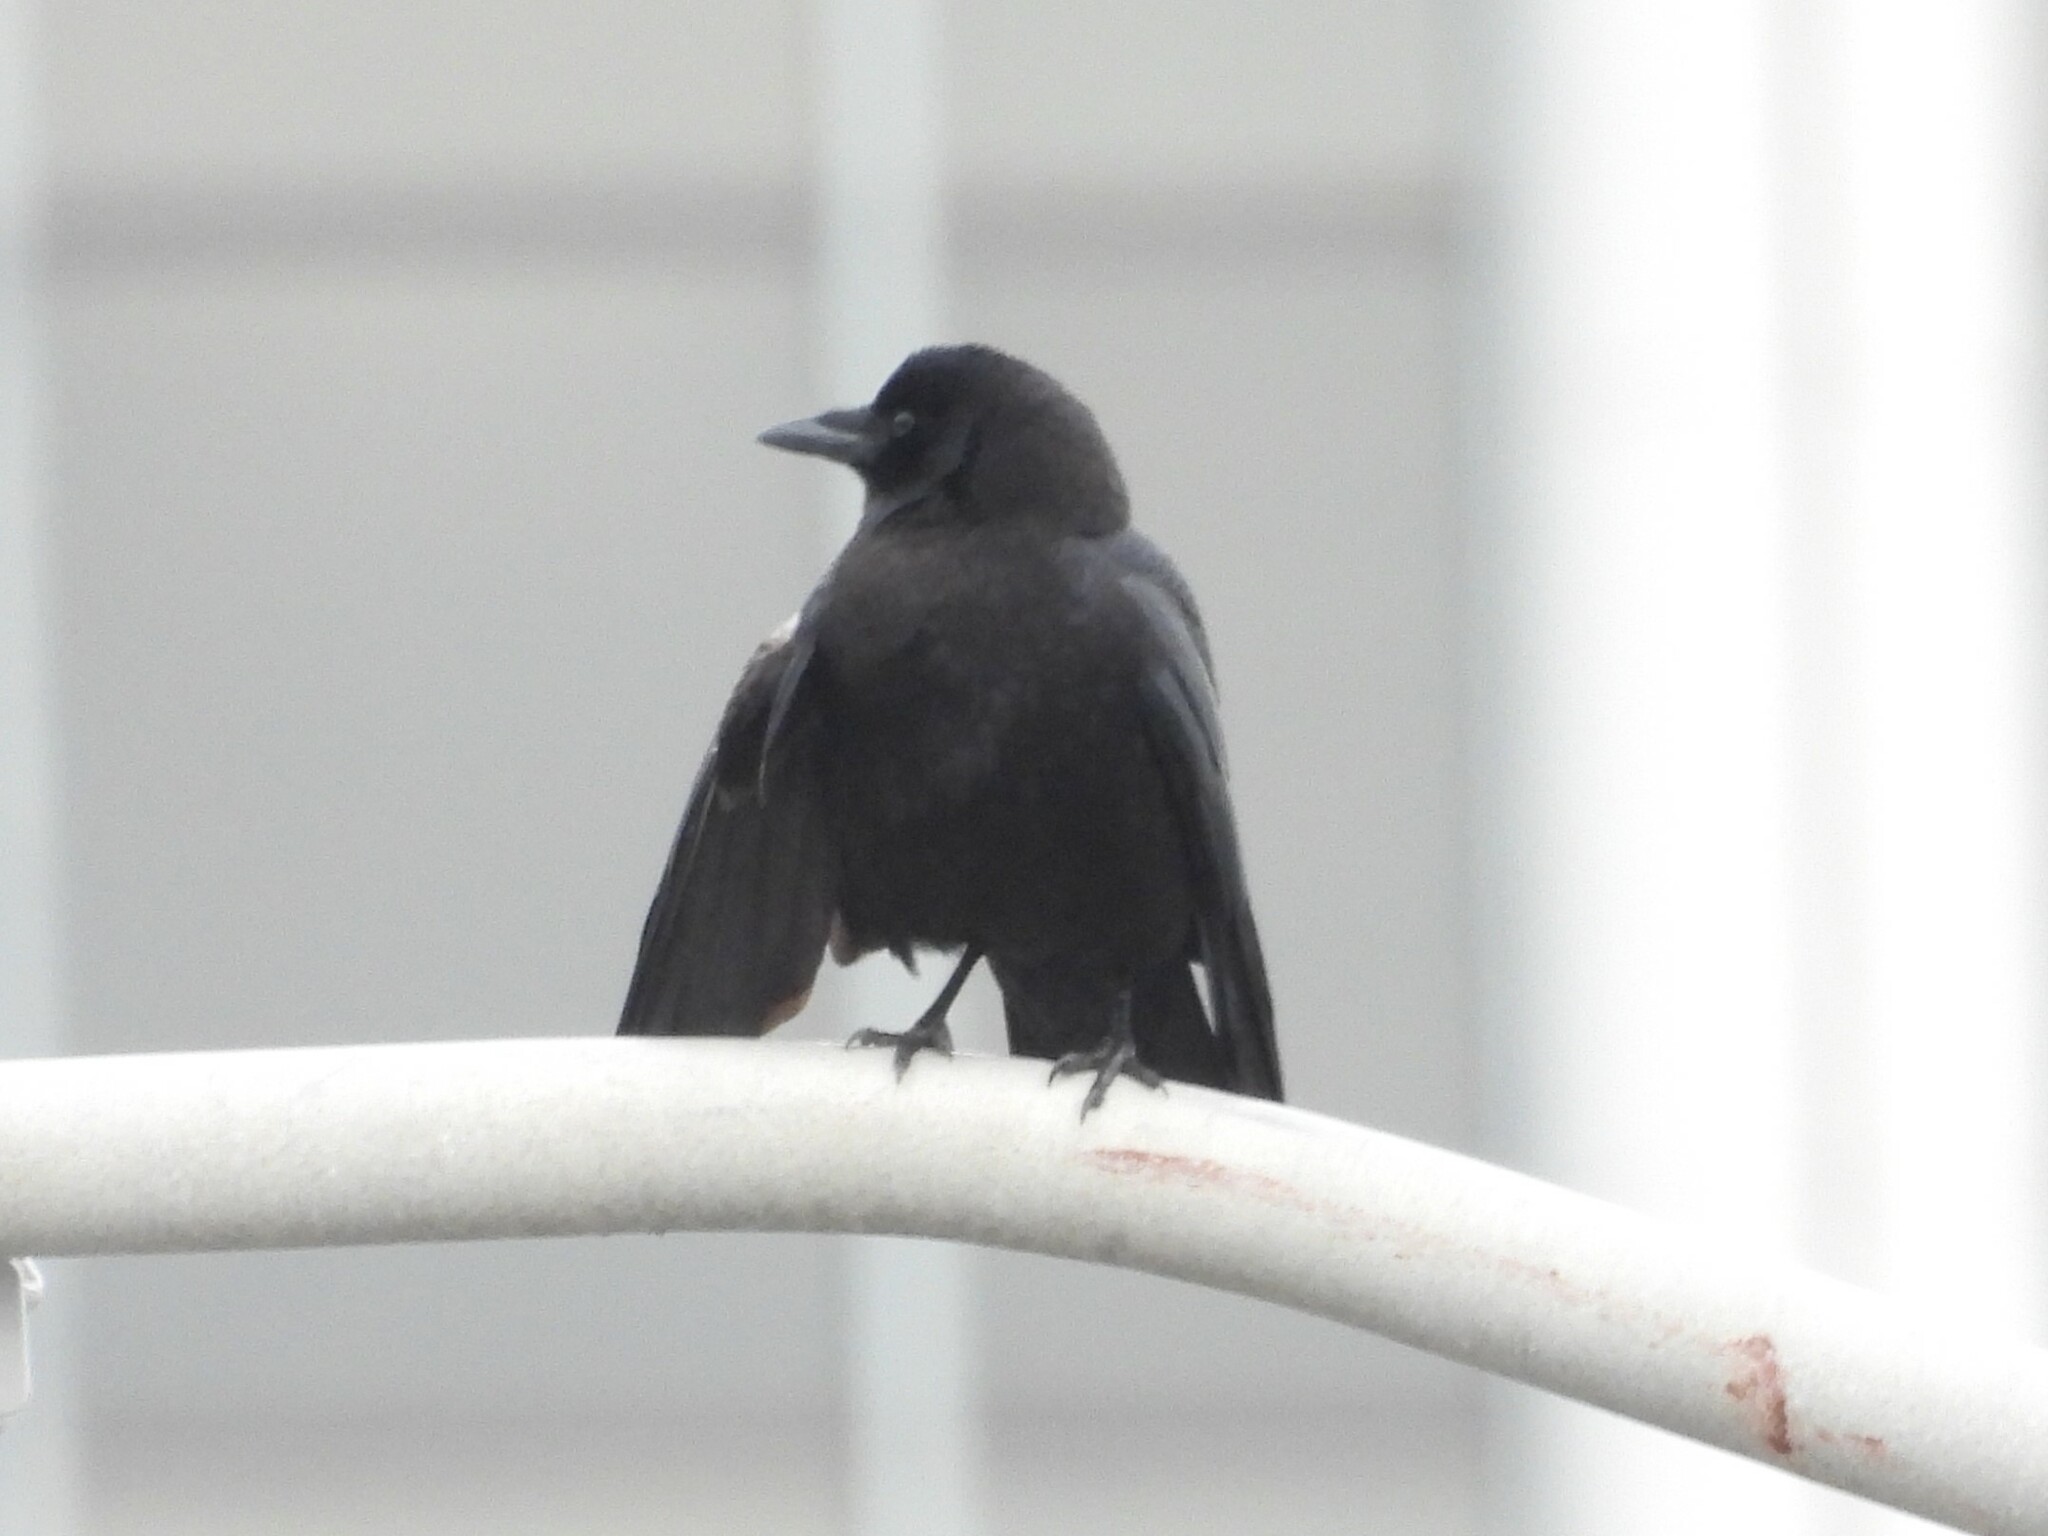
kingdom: Animalia
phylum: Chordata
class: Aves
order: Passeriformes
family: Corvidae
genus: Corvus
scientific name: Corvus brachyrhynchos
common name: American crow
